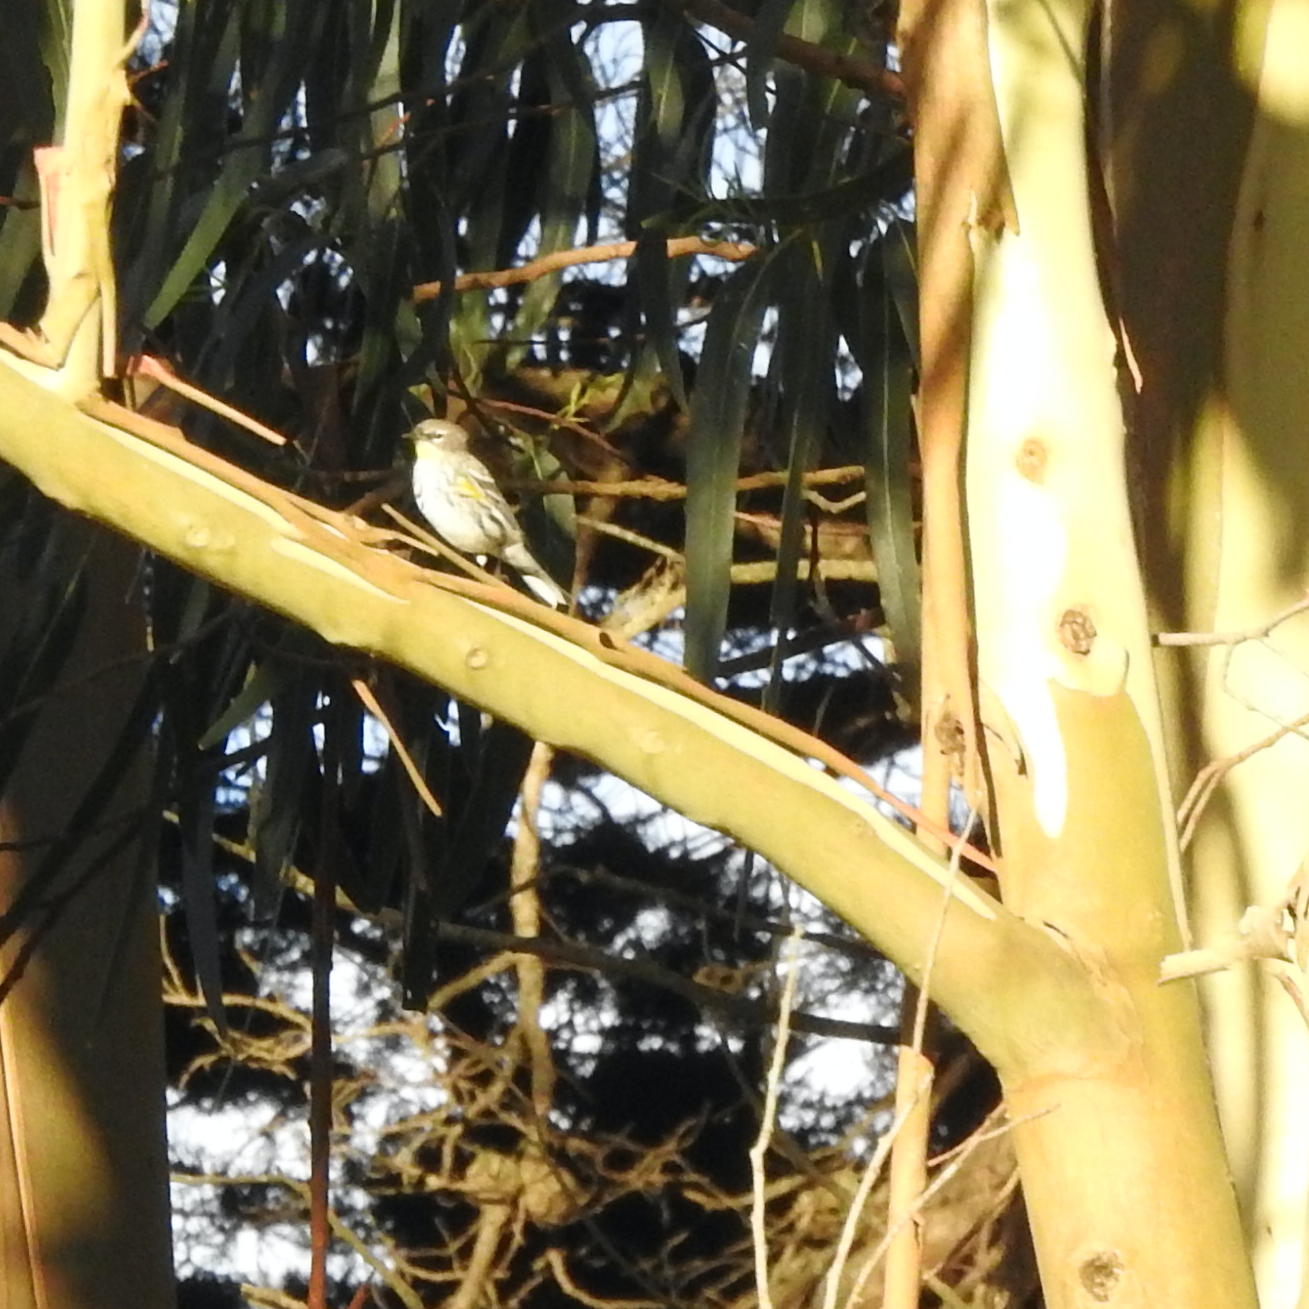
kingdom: Animalia
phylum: Chordata
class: Aves
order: Passeriformes
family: Parulidae
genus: Setophaga
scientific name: Setophaga coronata
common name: Myrtle warbler
